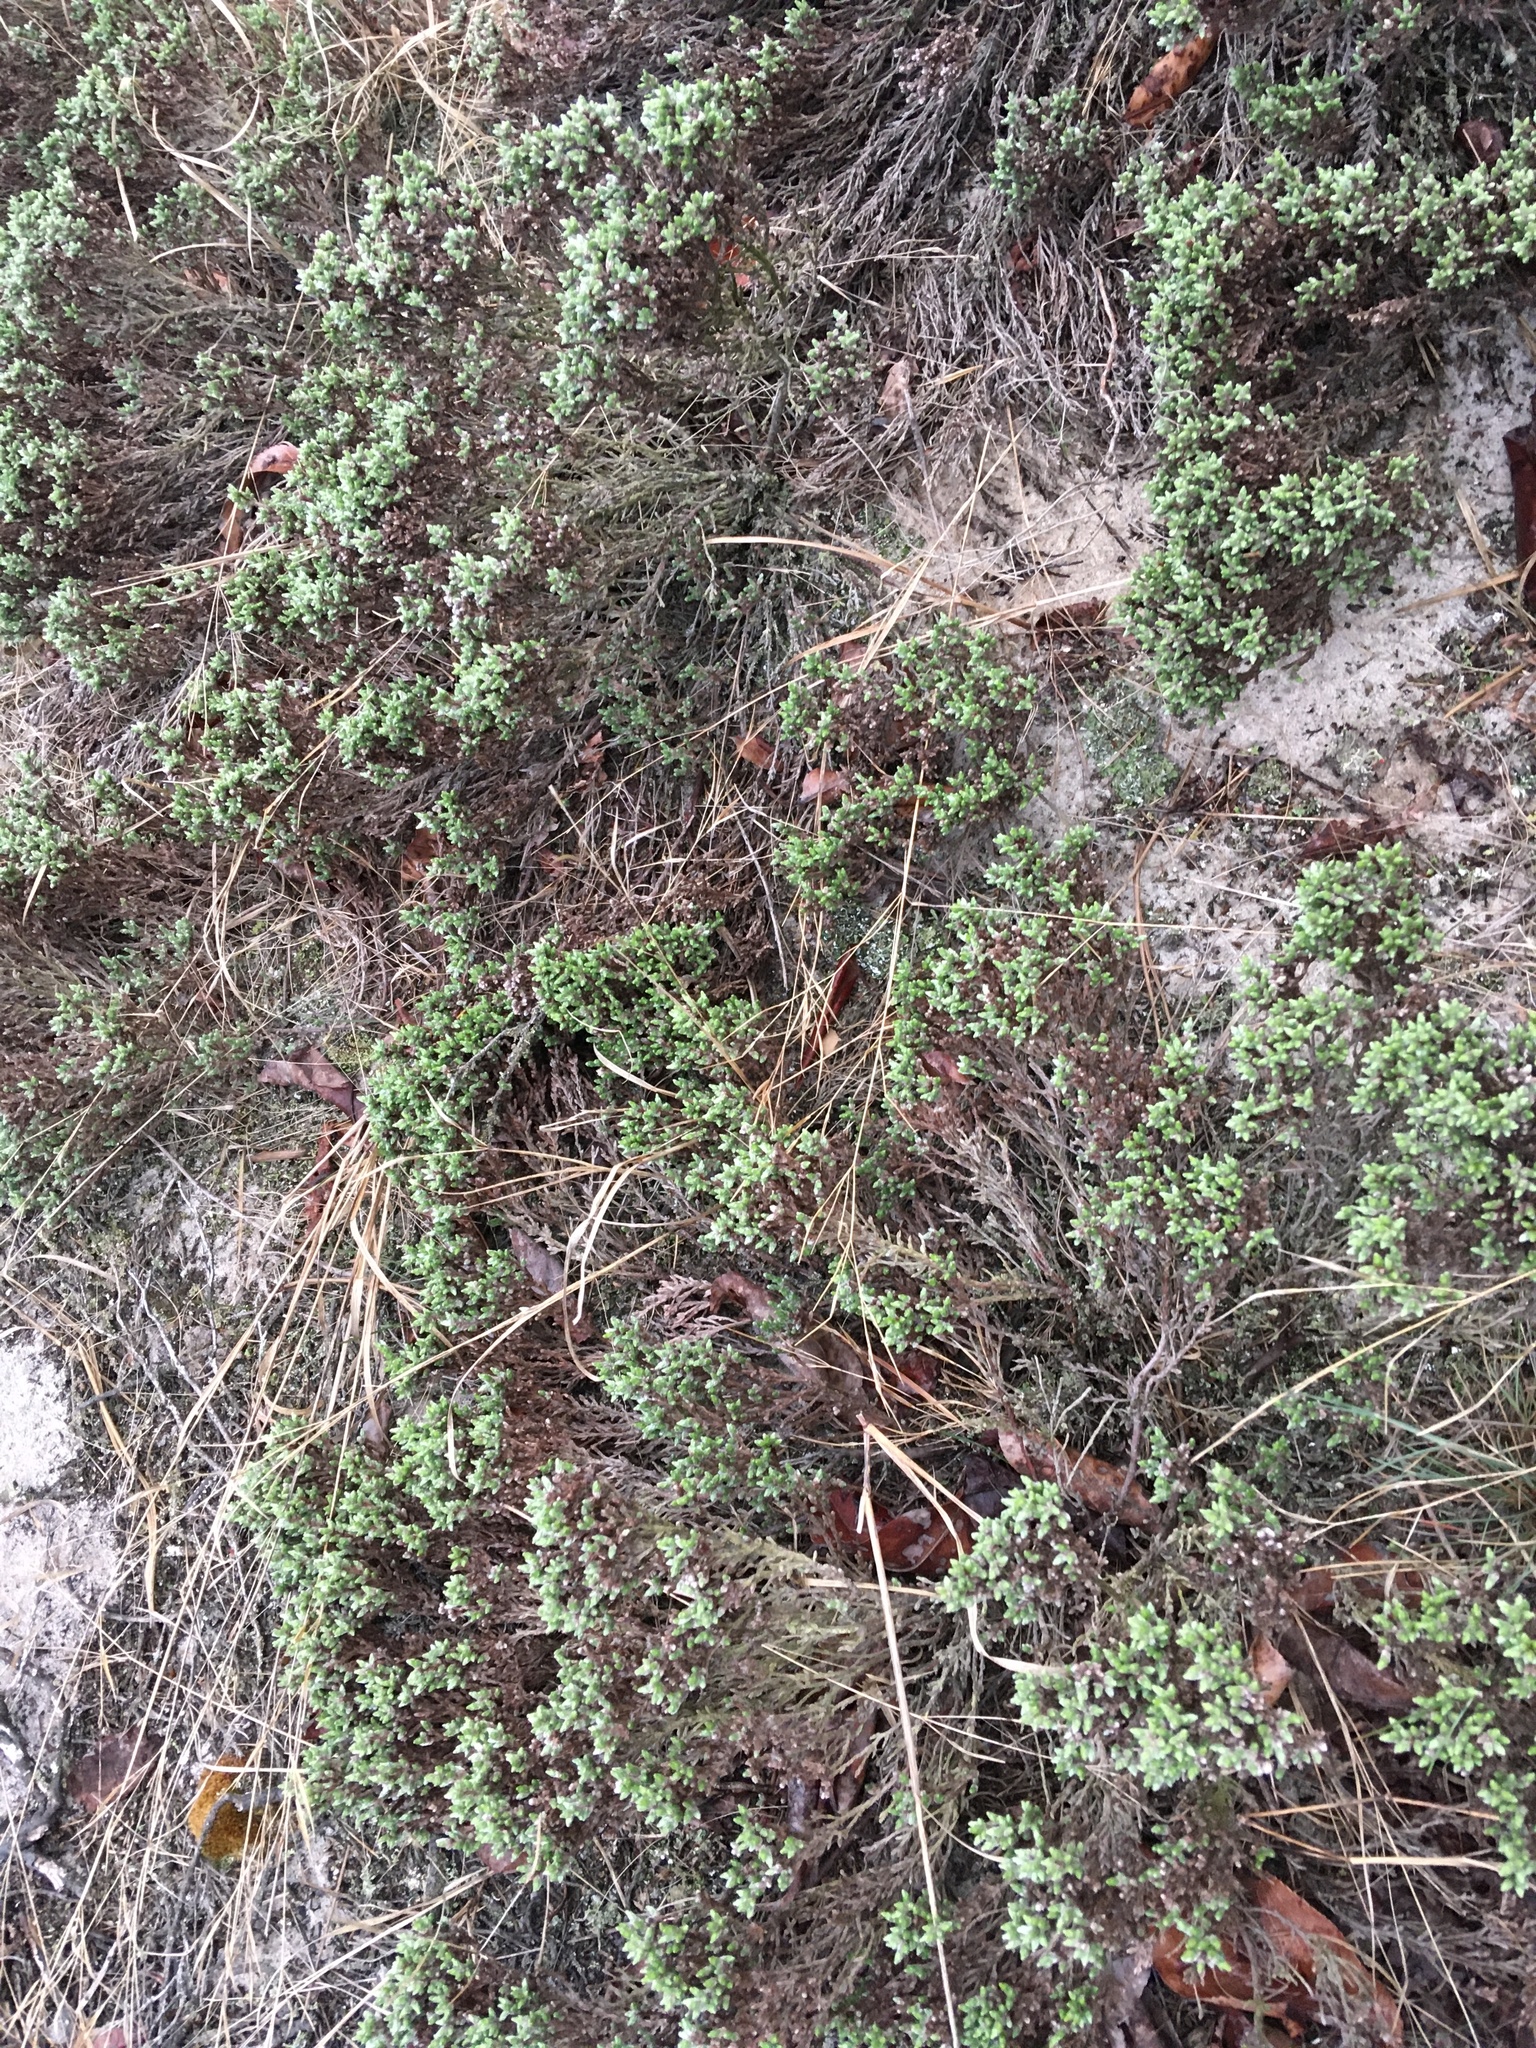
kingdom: Plantae
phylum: Tracheophyta
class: Magnoliopsida
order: Malvales
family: Cistaceae
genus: Hudsonia
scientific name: Hudsonia tomentosa
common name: Beach-heath
